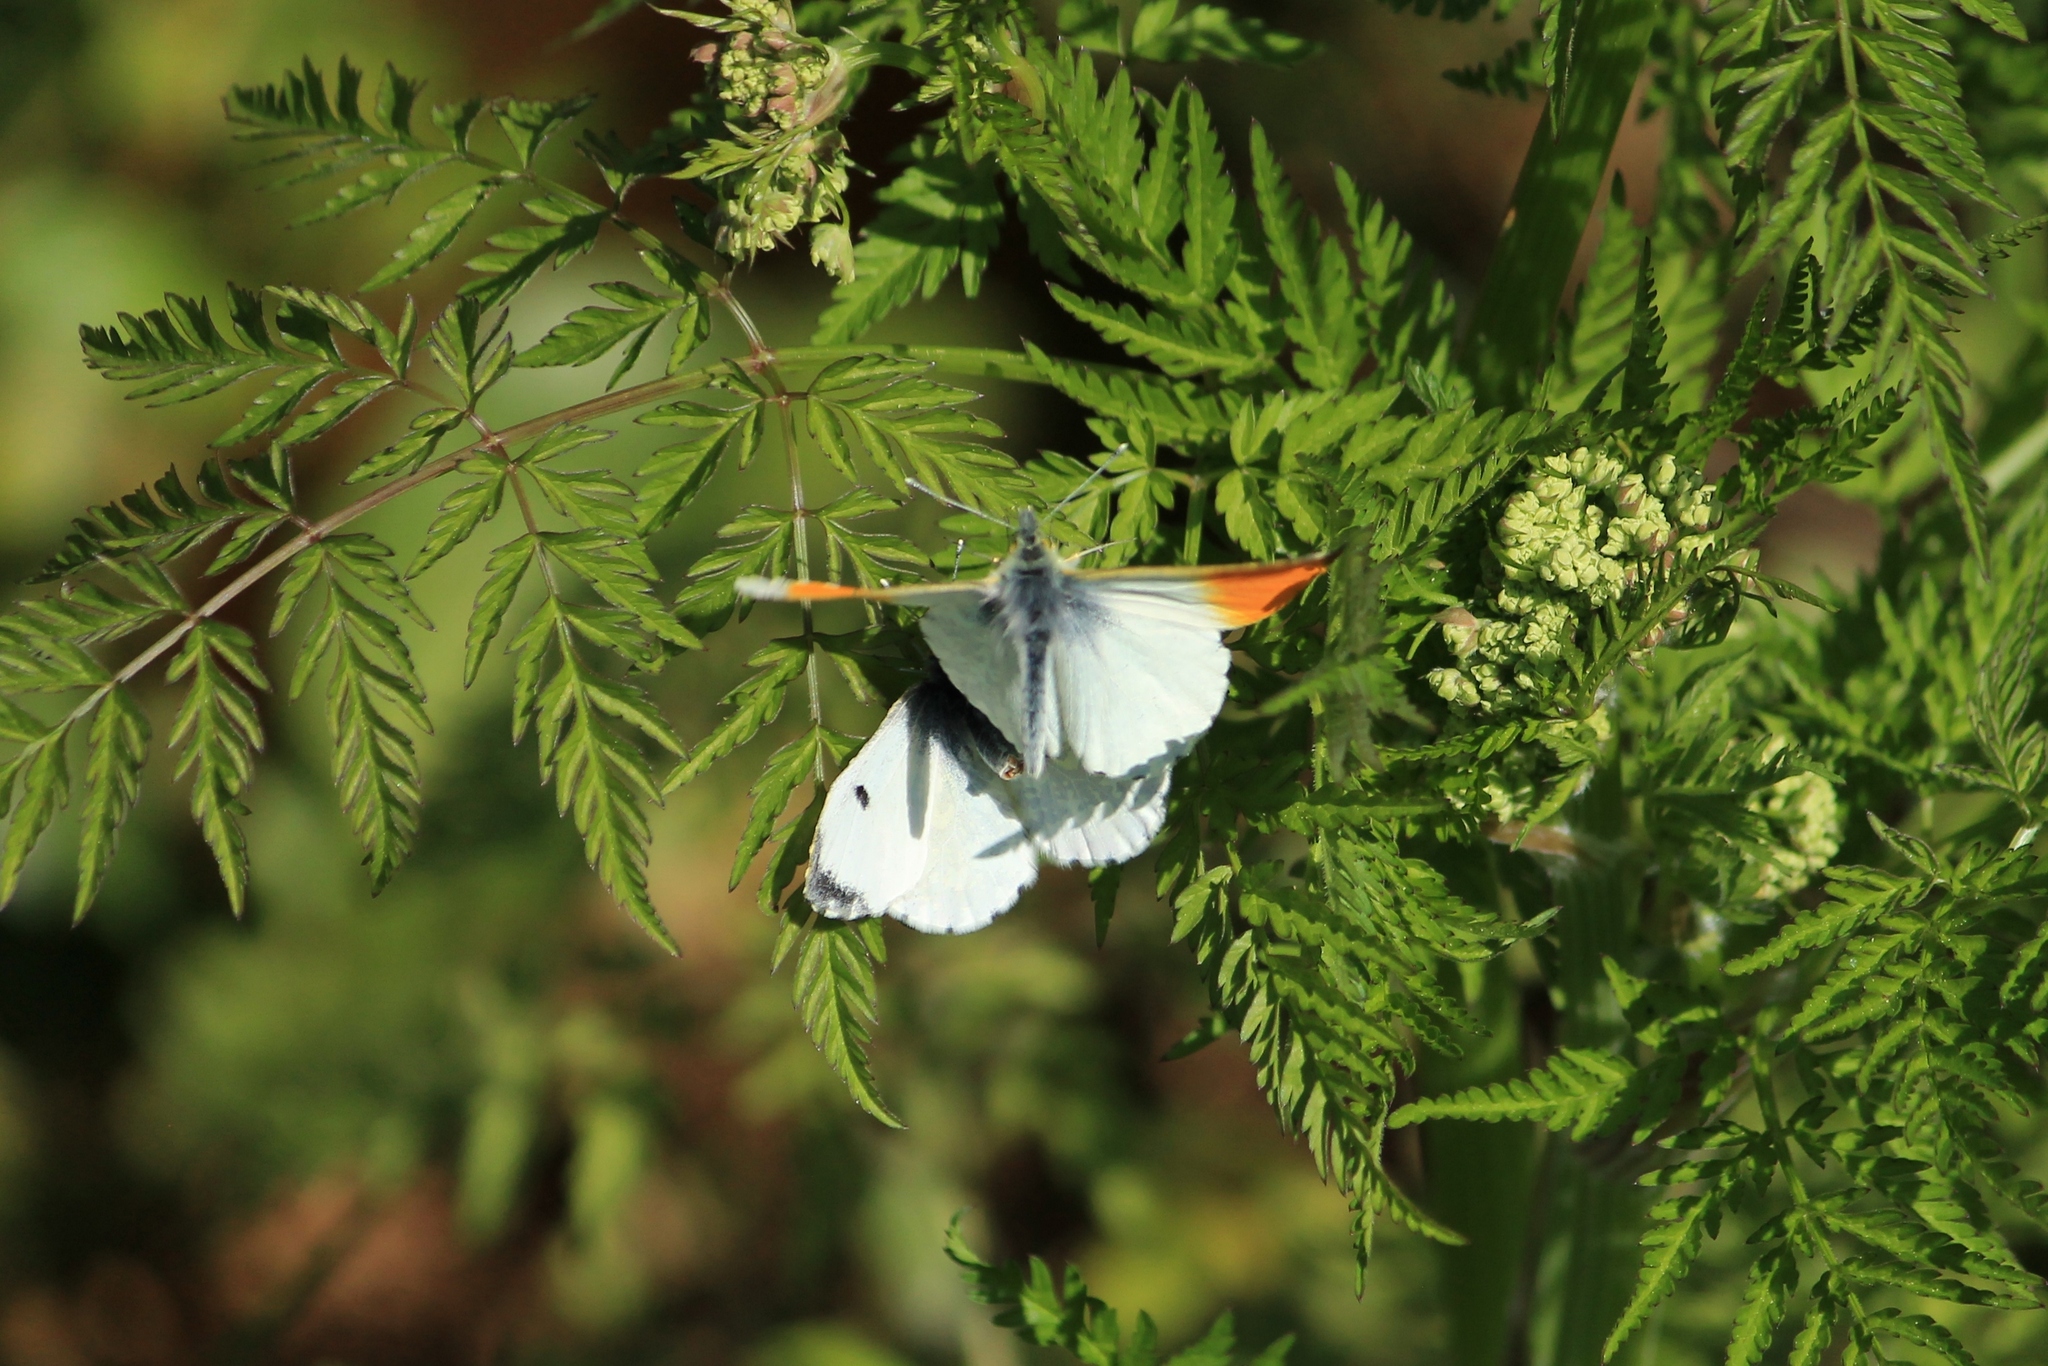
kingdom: Animalia
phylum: Arthropoda
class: Insecta
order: Lepidoptera
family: Pieridae
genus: Anthocharis
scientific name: Anthocharis cardamines
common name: Orange-tip
